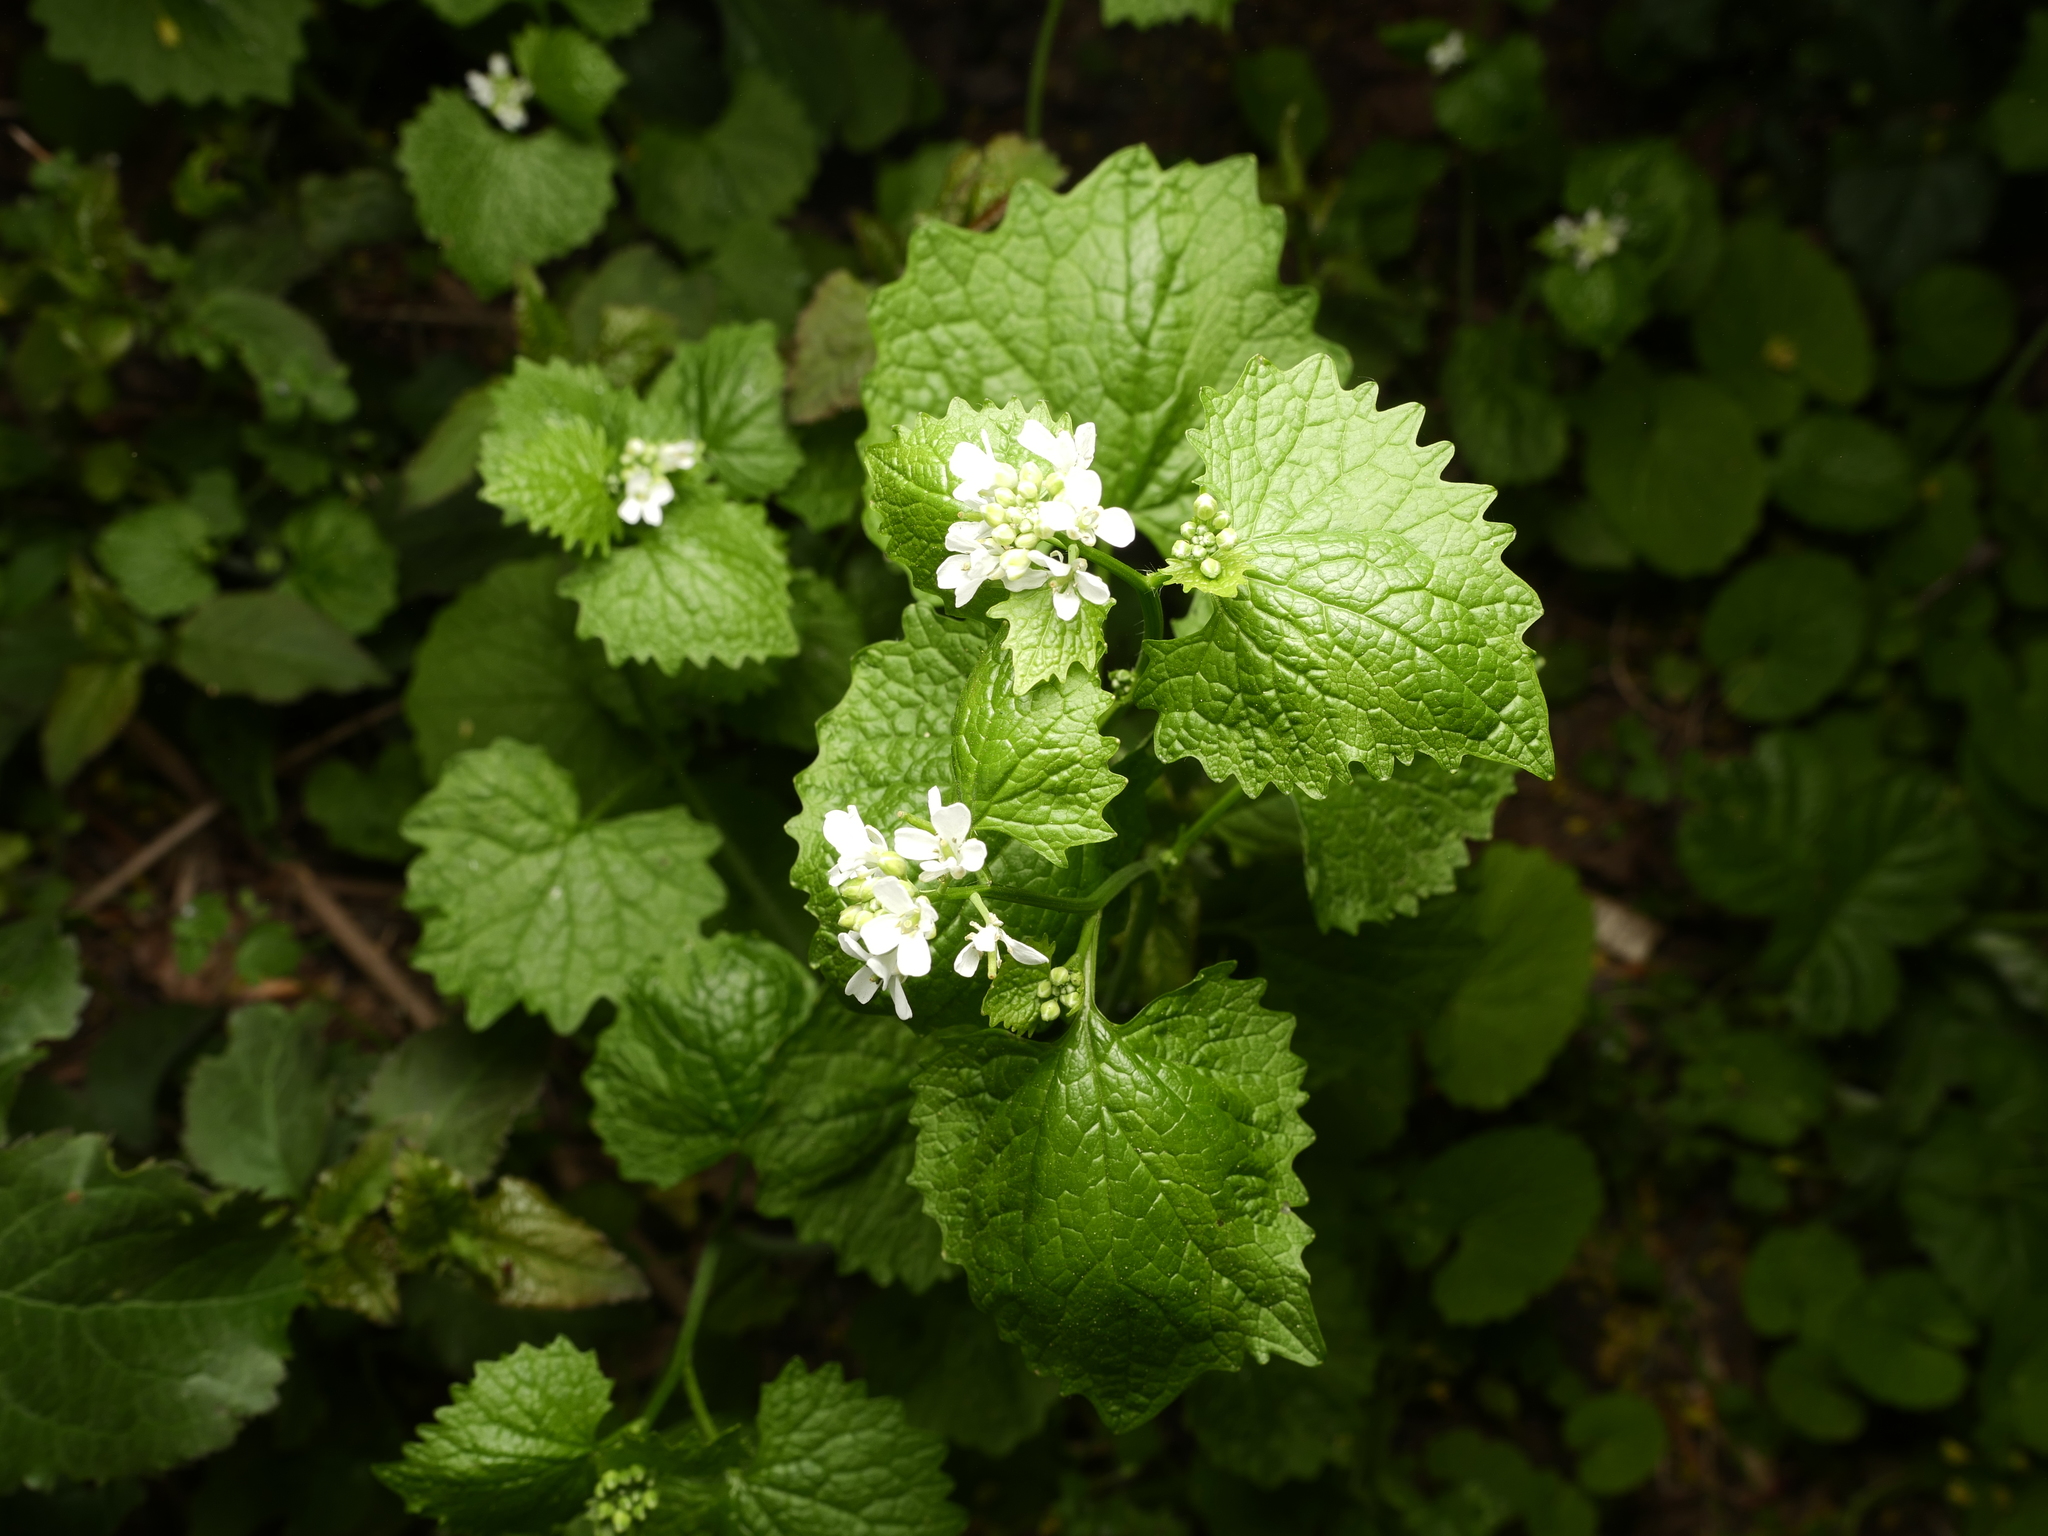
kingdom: Plantae
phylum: Tracheophyta
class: Magnoliopsida
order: Brassicales
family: Brassicaceae
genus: Alliaria
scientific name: Alliaria petiolata
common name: Garlic mustard
